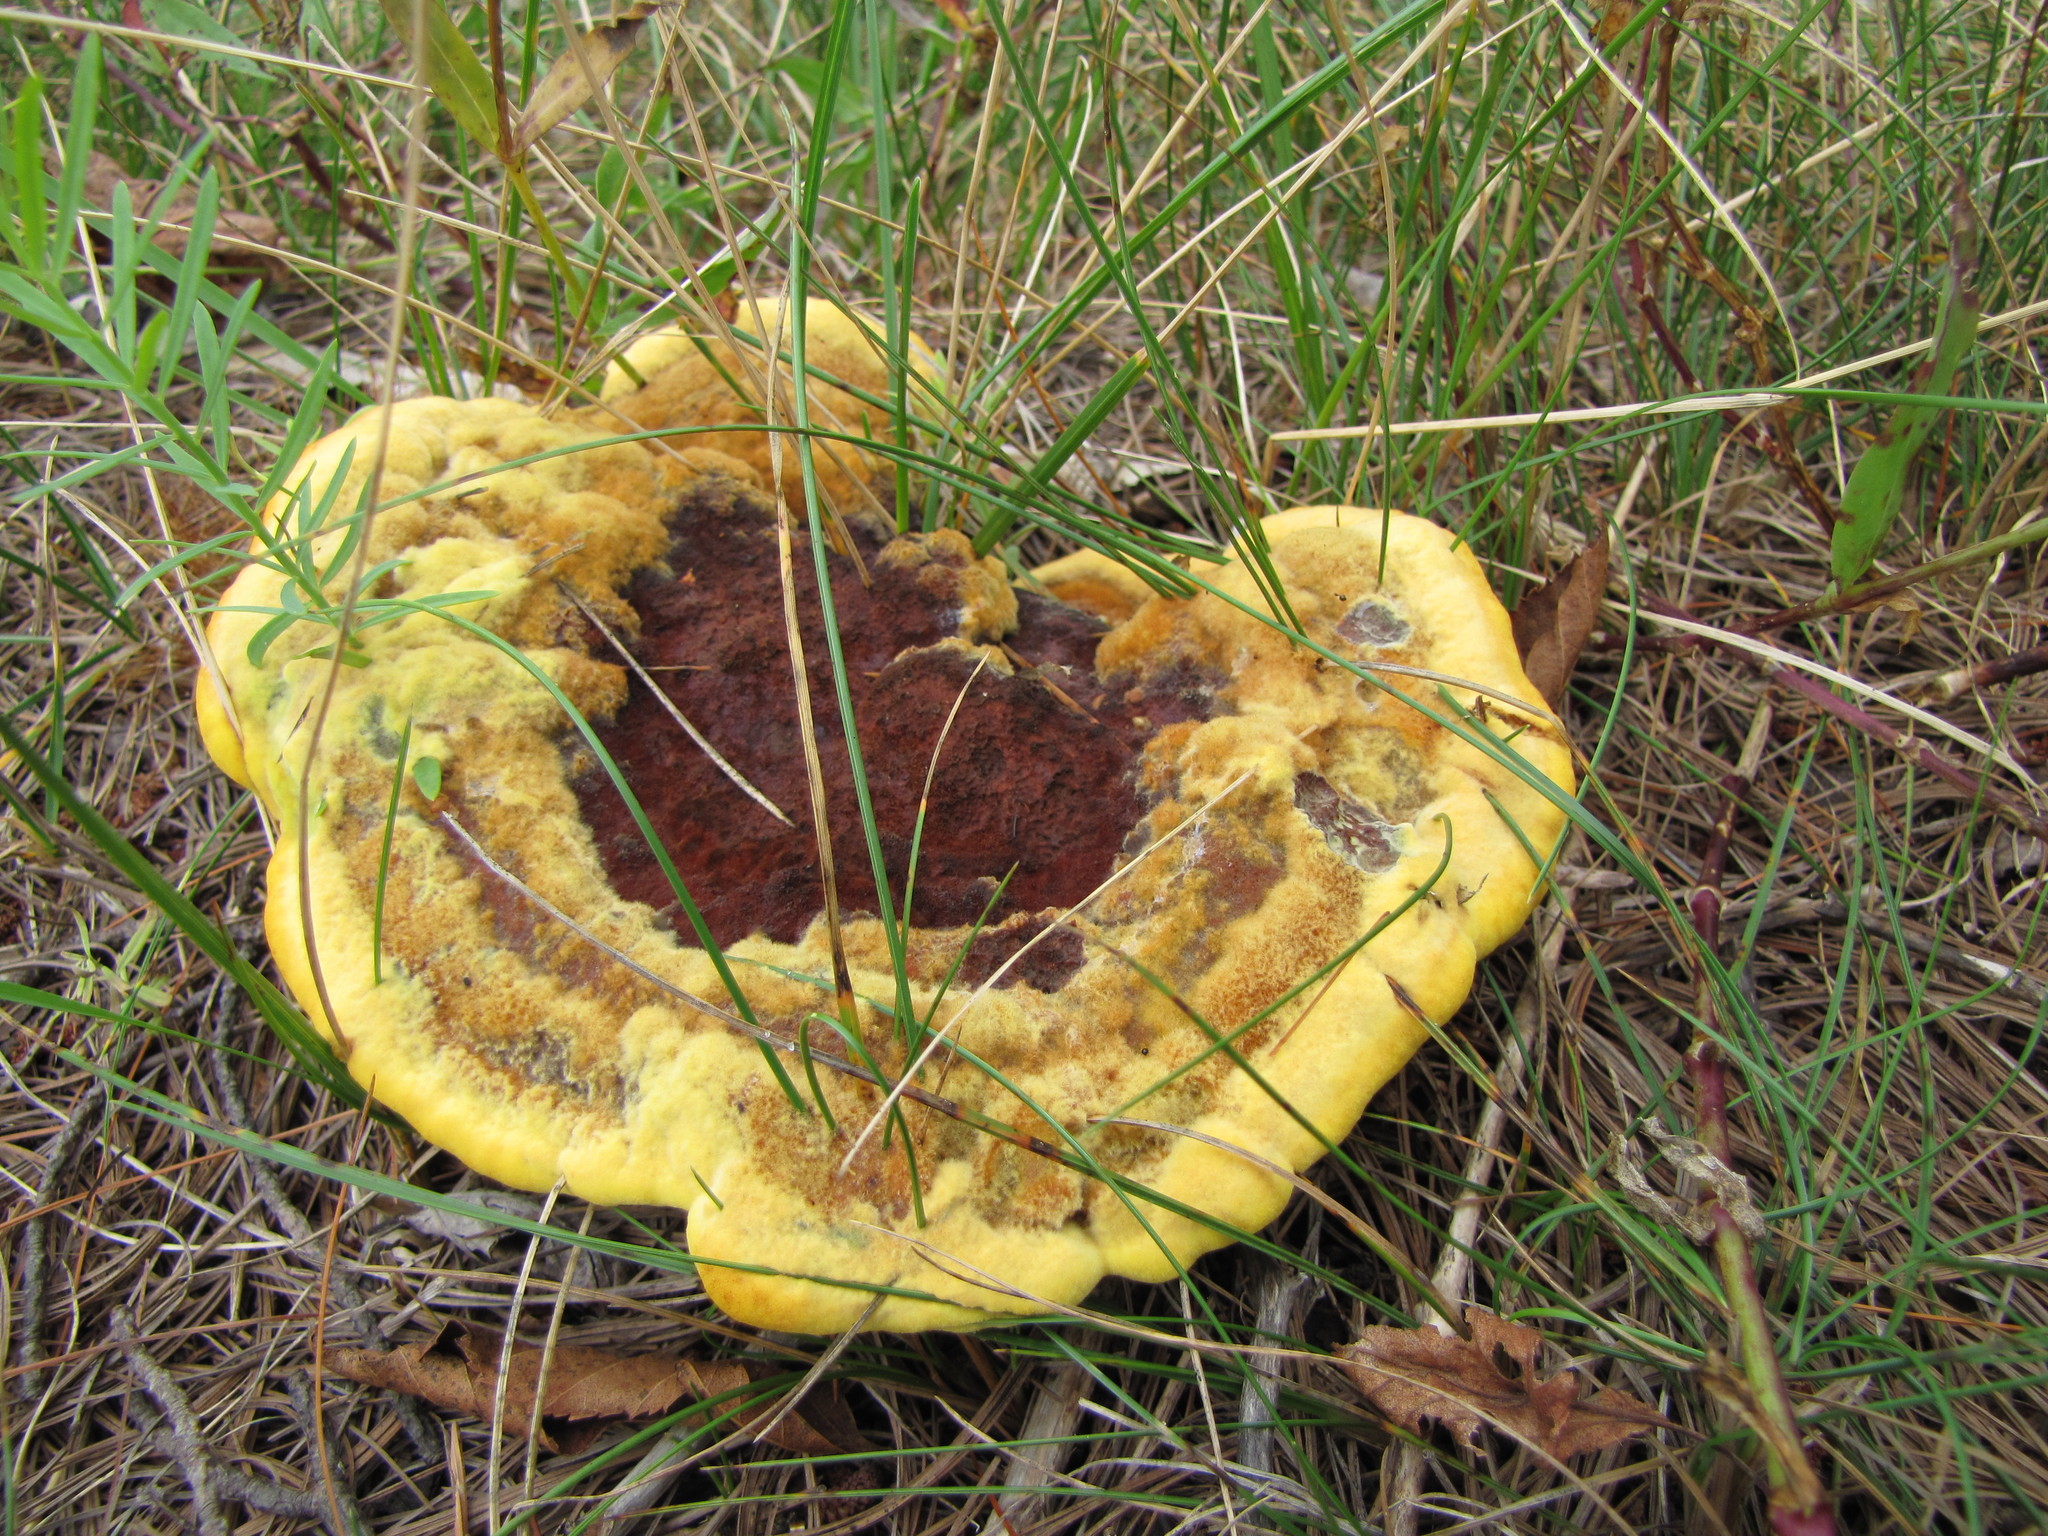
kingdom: Fungi
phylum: Basidiomycota
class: Agaricomycetes
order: Polyporales
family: Laetiporaceae
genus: Phaeolus
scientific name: Phaeolus schweinitzii
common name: Dyer's mazegill
